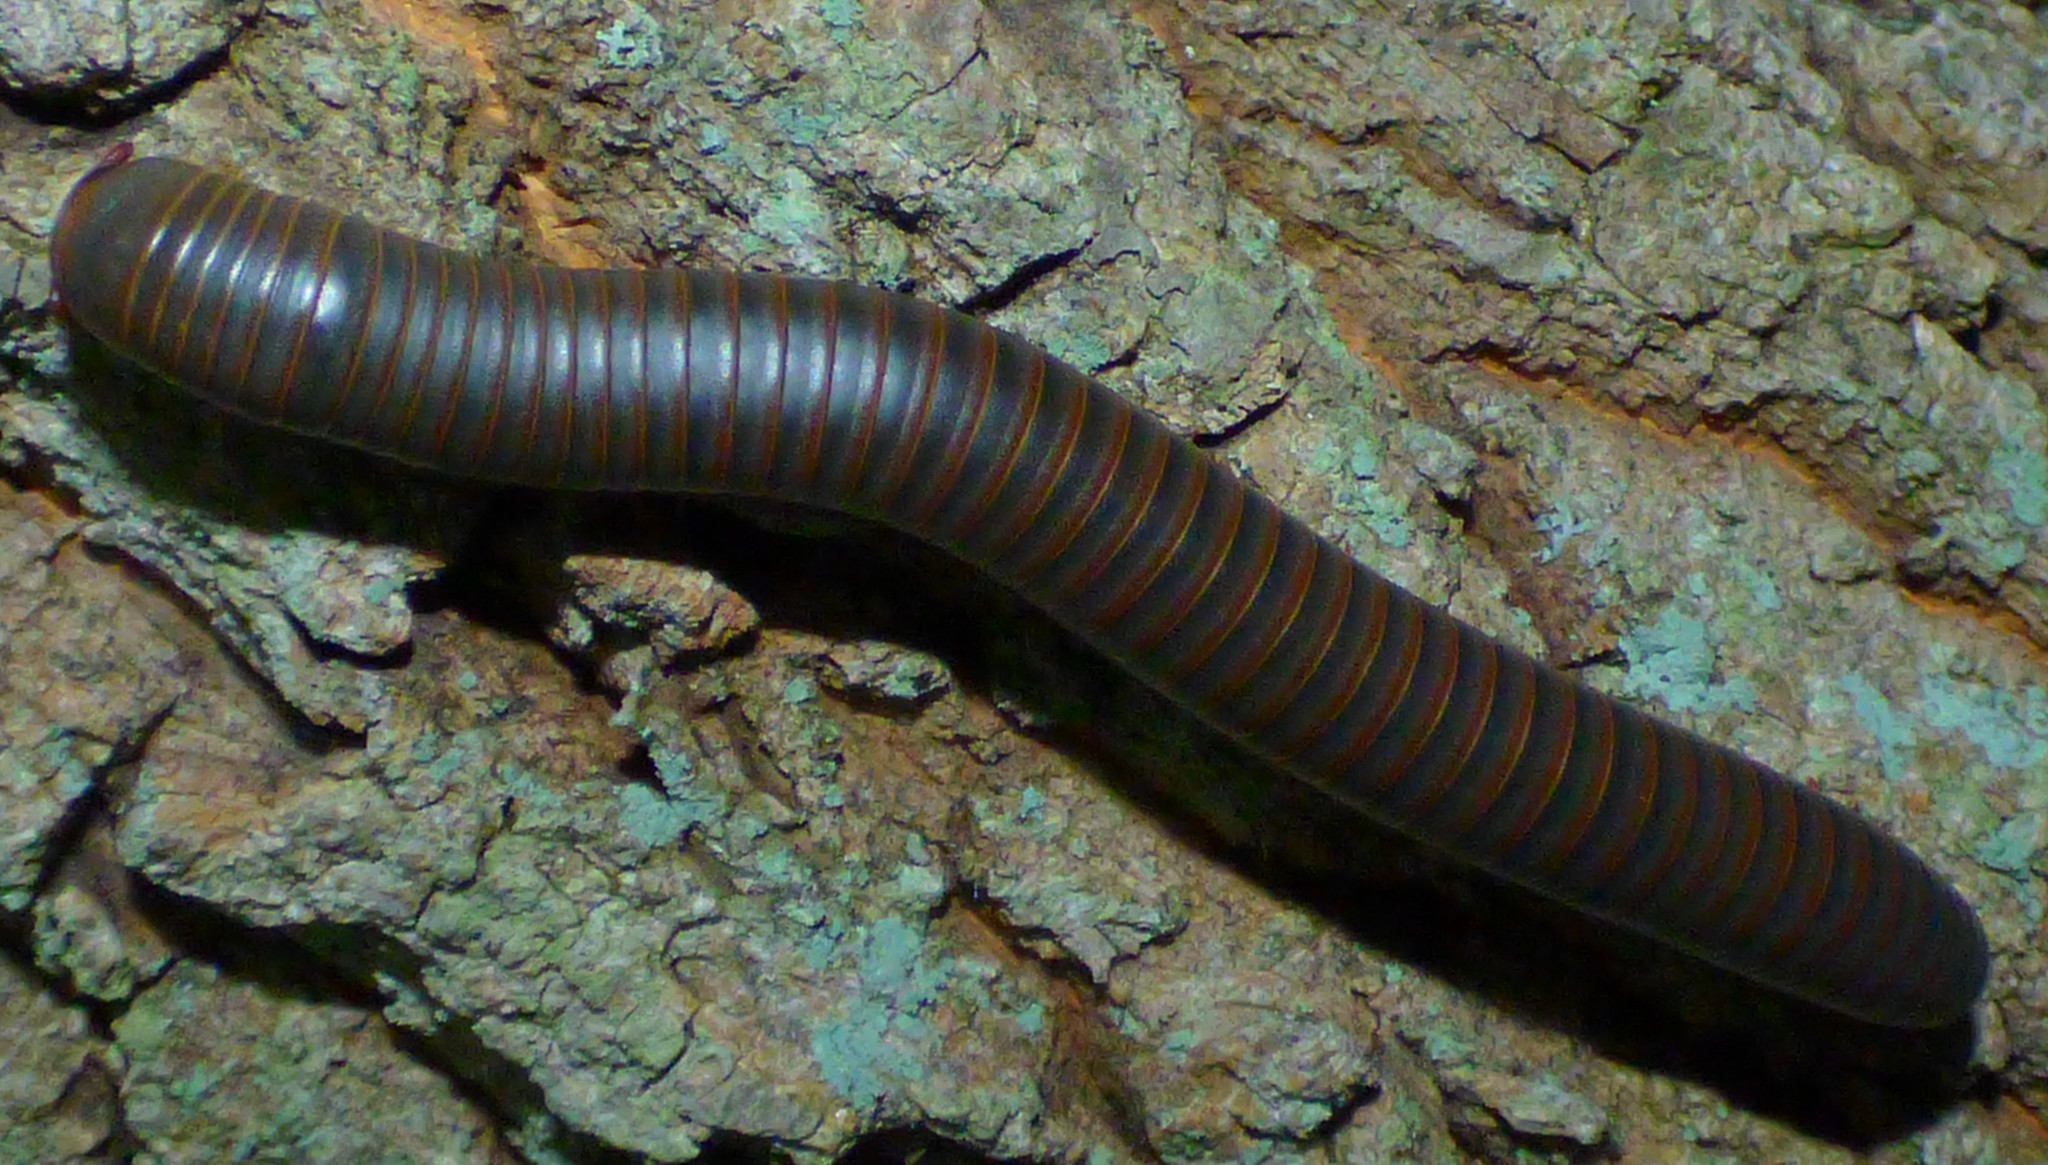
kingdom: Animalia
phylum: Arthropoda
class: Diplopoda
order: Spirobolida
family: Spirobolidae
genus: Narceus
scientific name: Narceus
